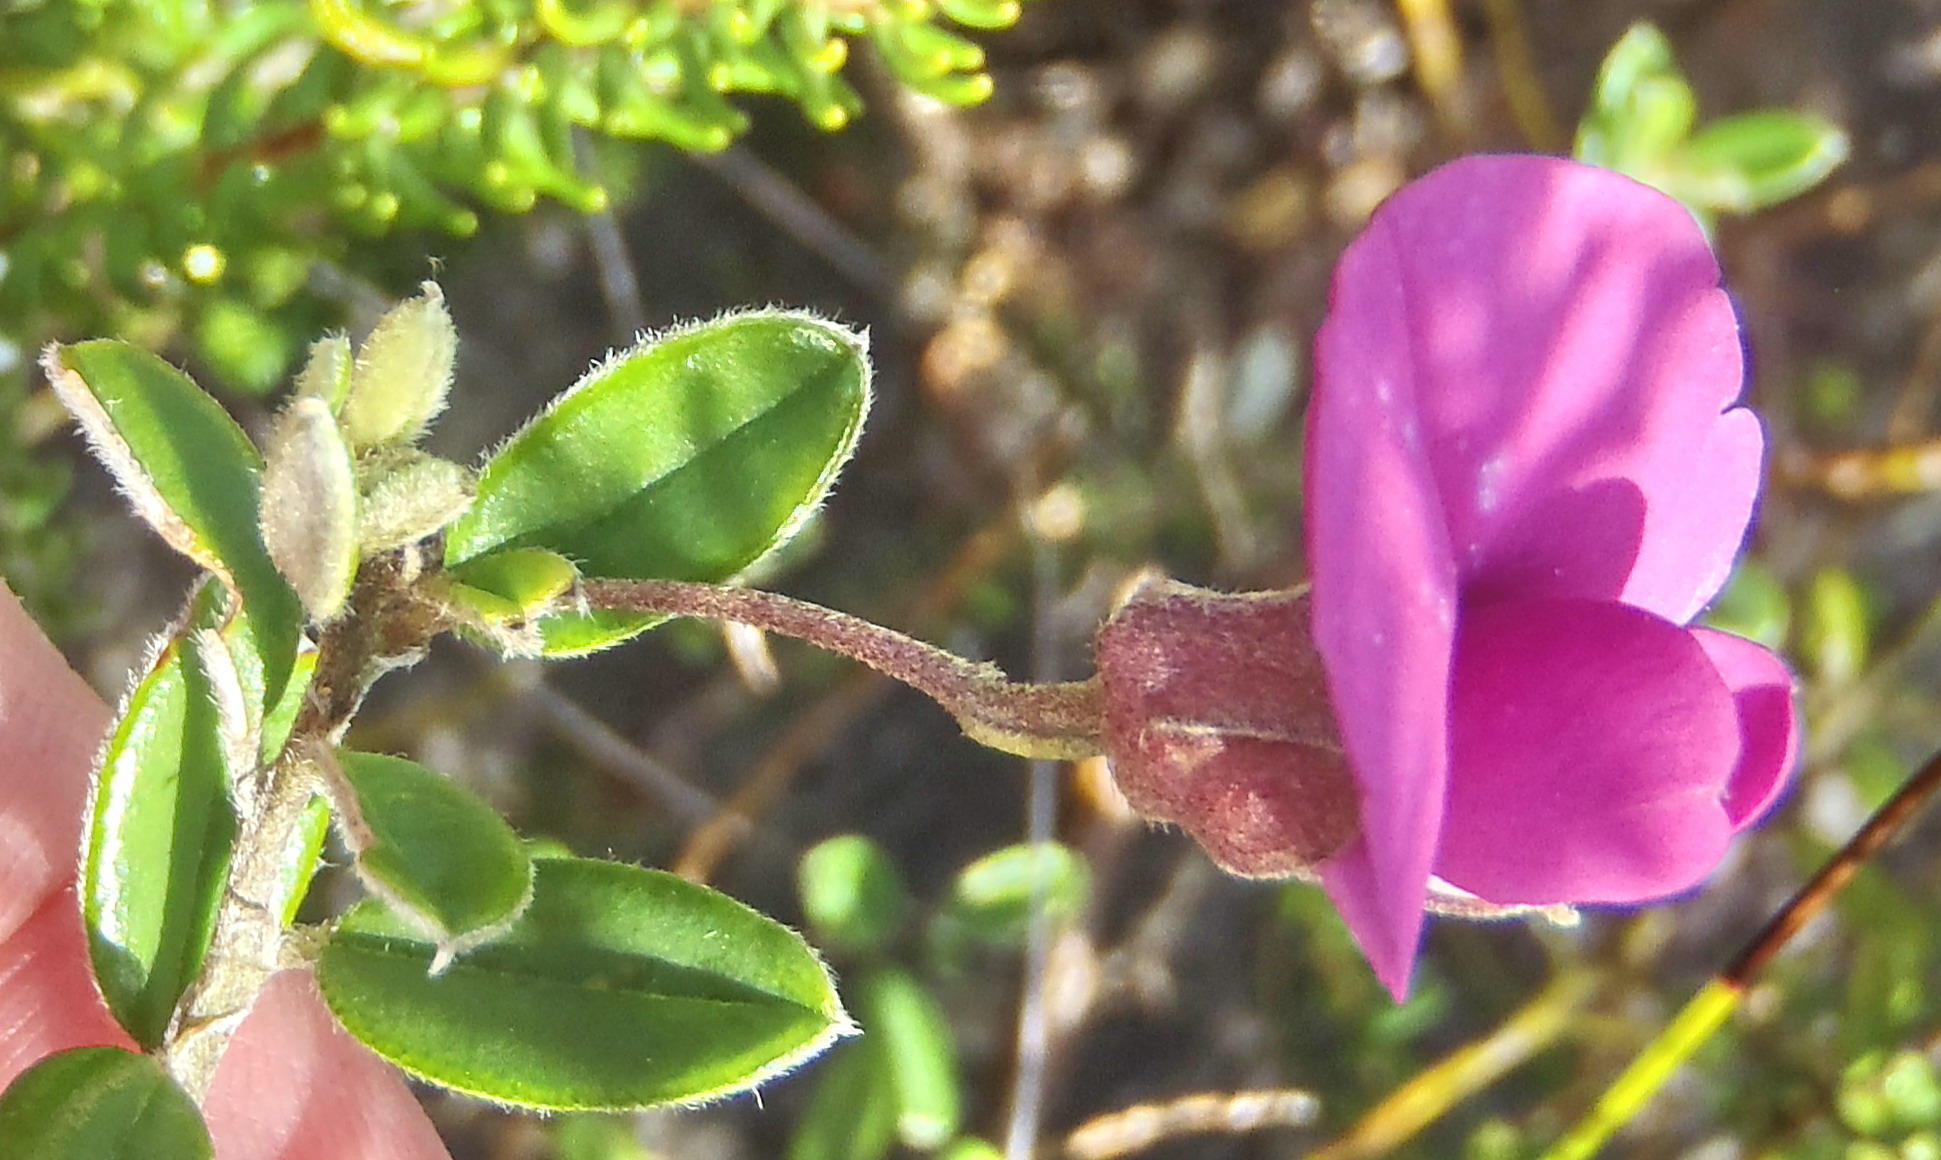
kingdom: Plantae
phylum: Tracheophyta
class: Magnoliopsida
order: Fabales
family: Fabaceae
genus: Podalyria
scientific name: Podalyria buxifolia
